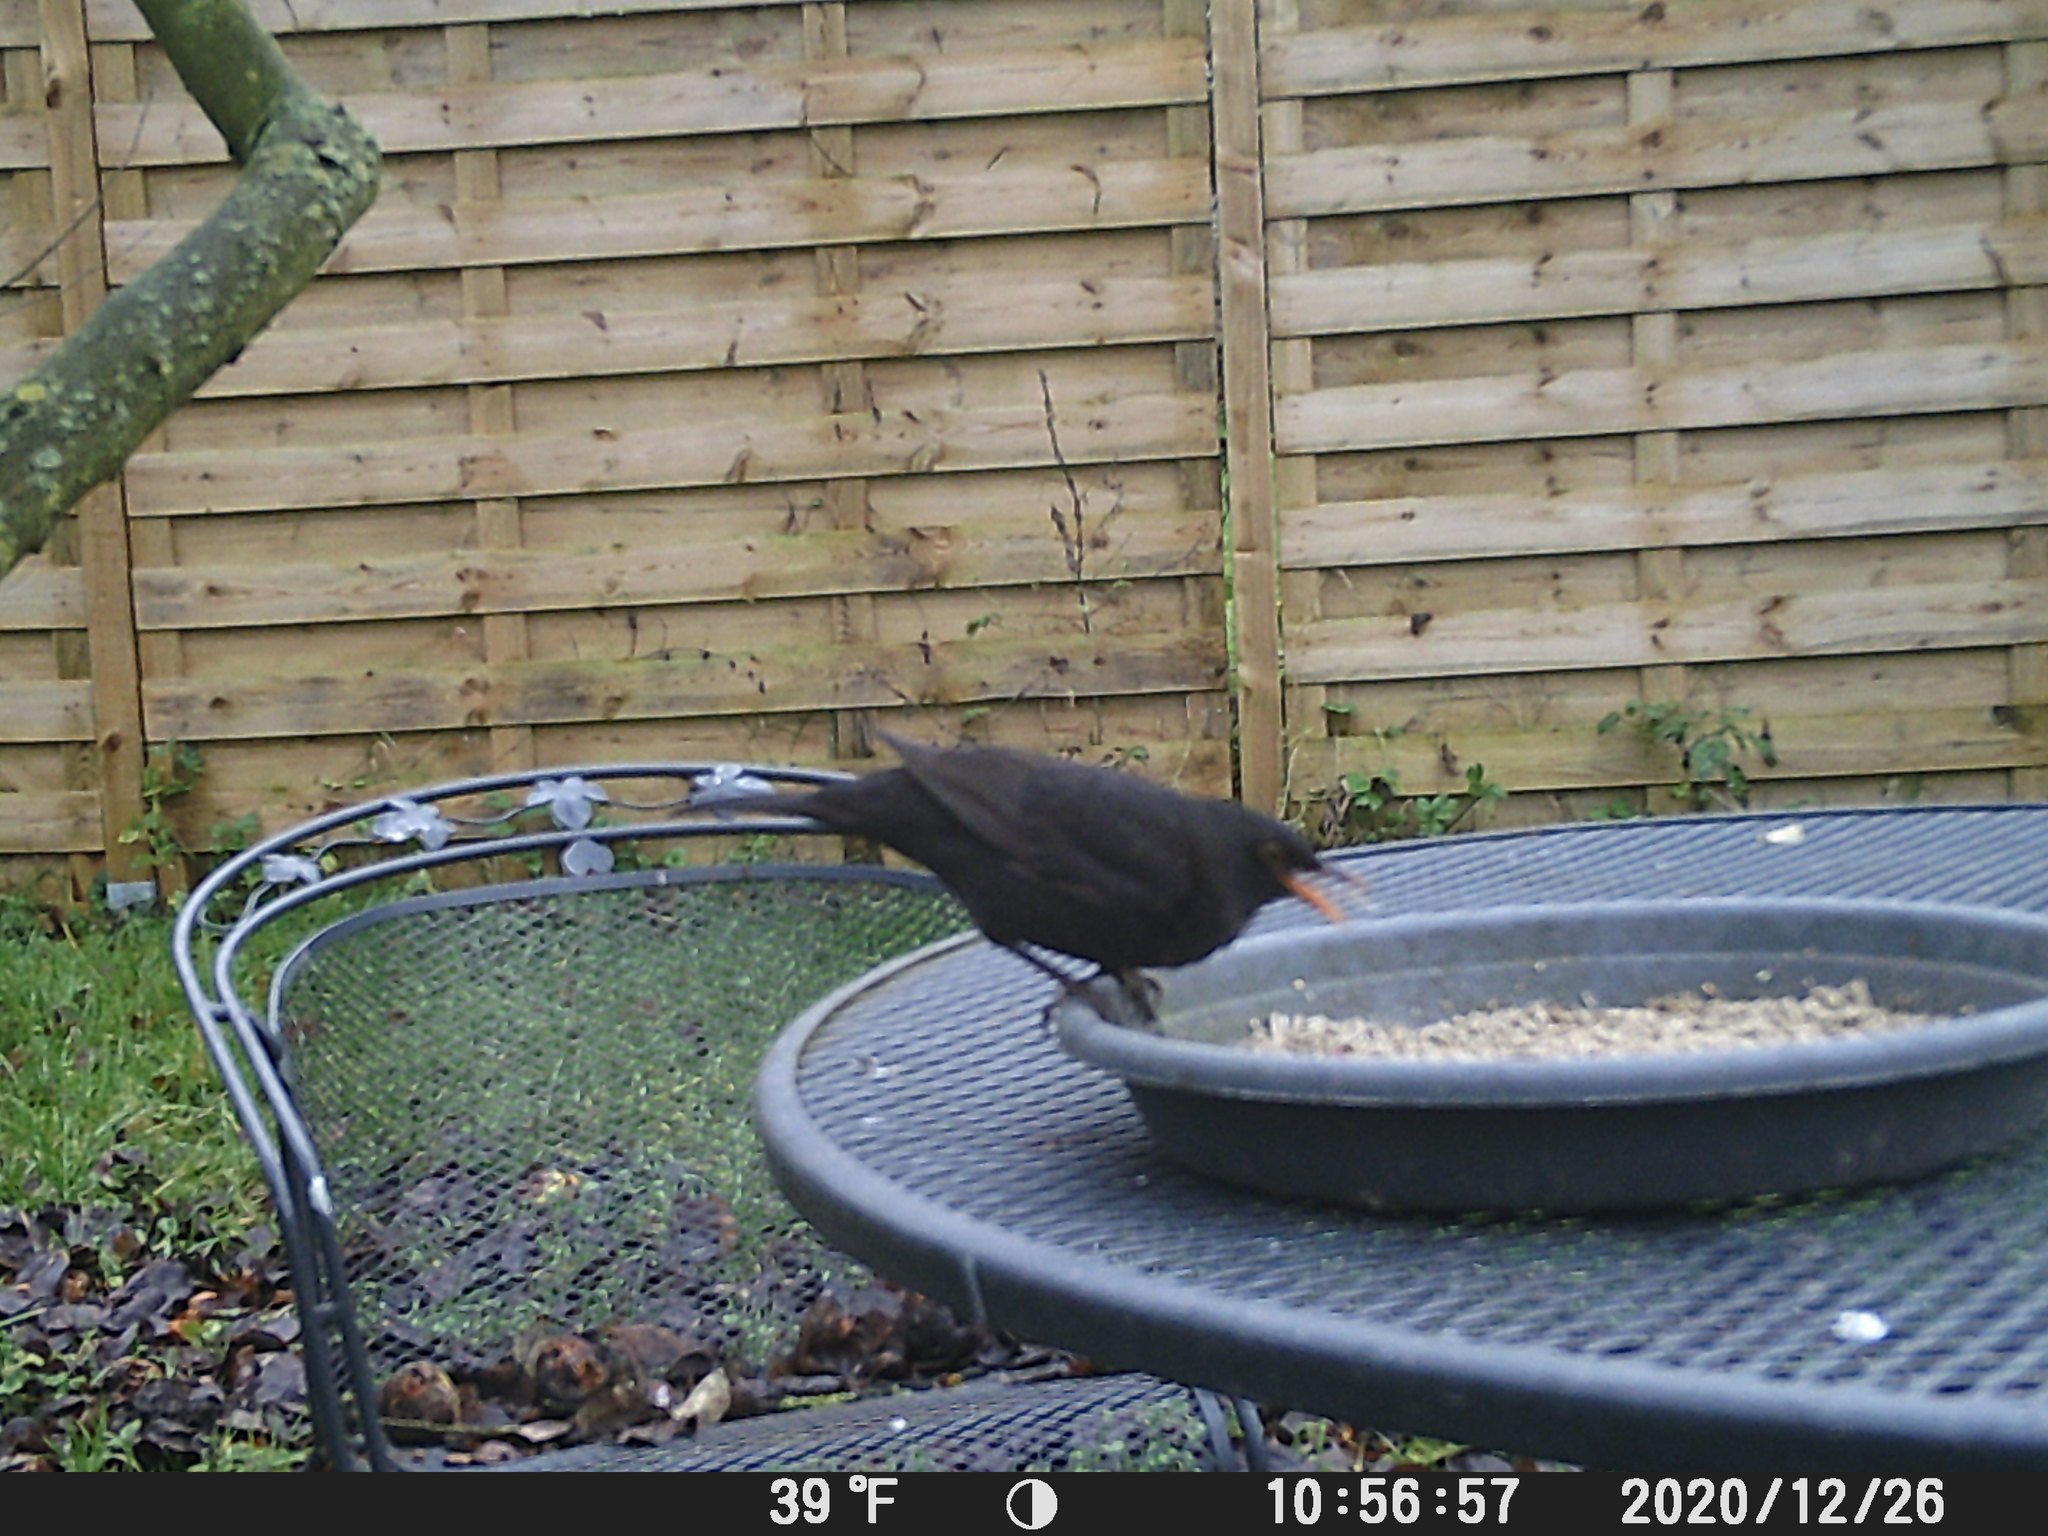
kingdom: Animalia
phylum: Chordata
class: Aves
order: Passeriformes
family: Turdidae
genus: Turdus
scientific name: Turdus merula
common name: Common blackbird
